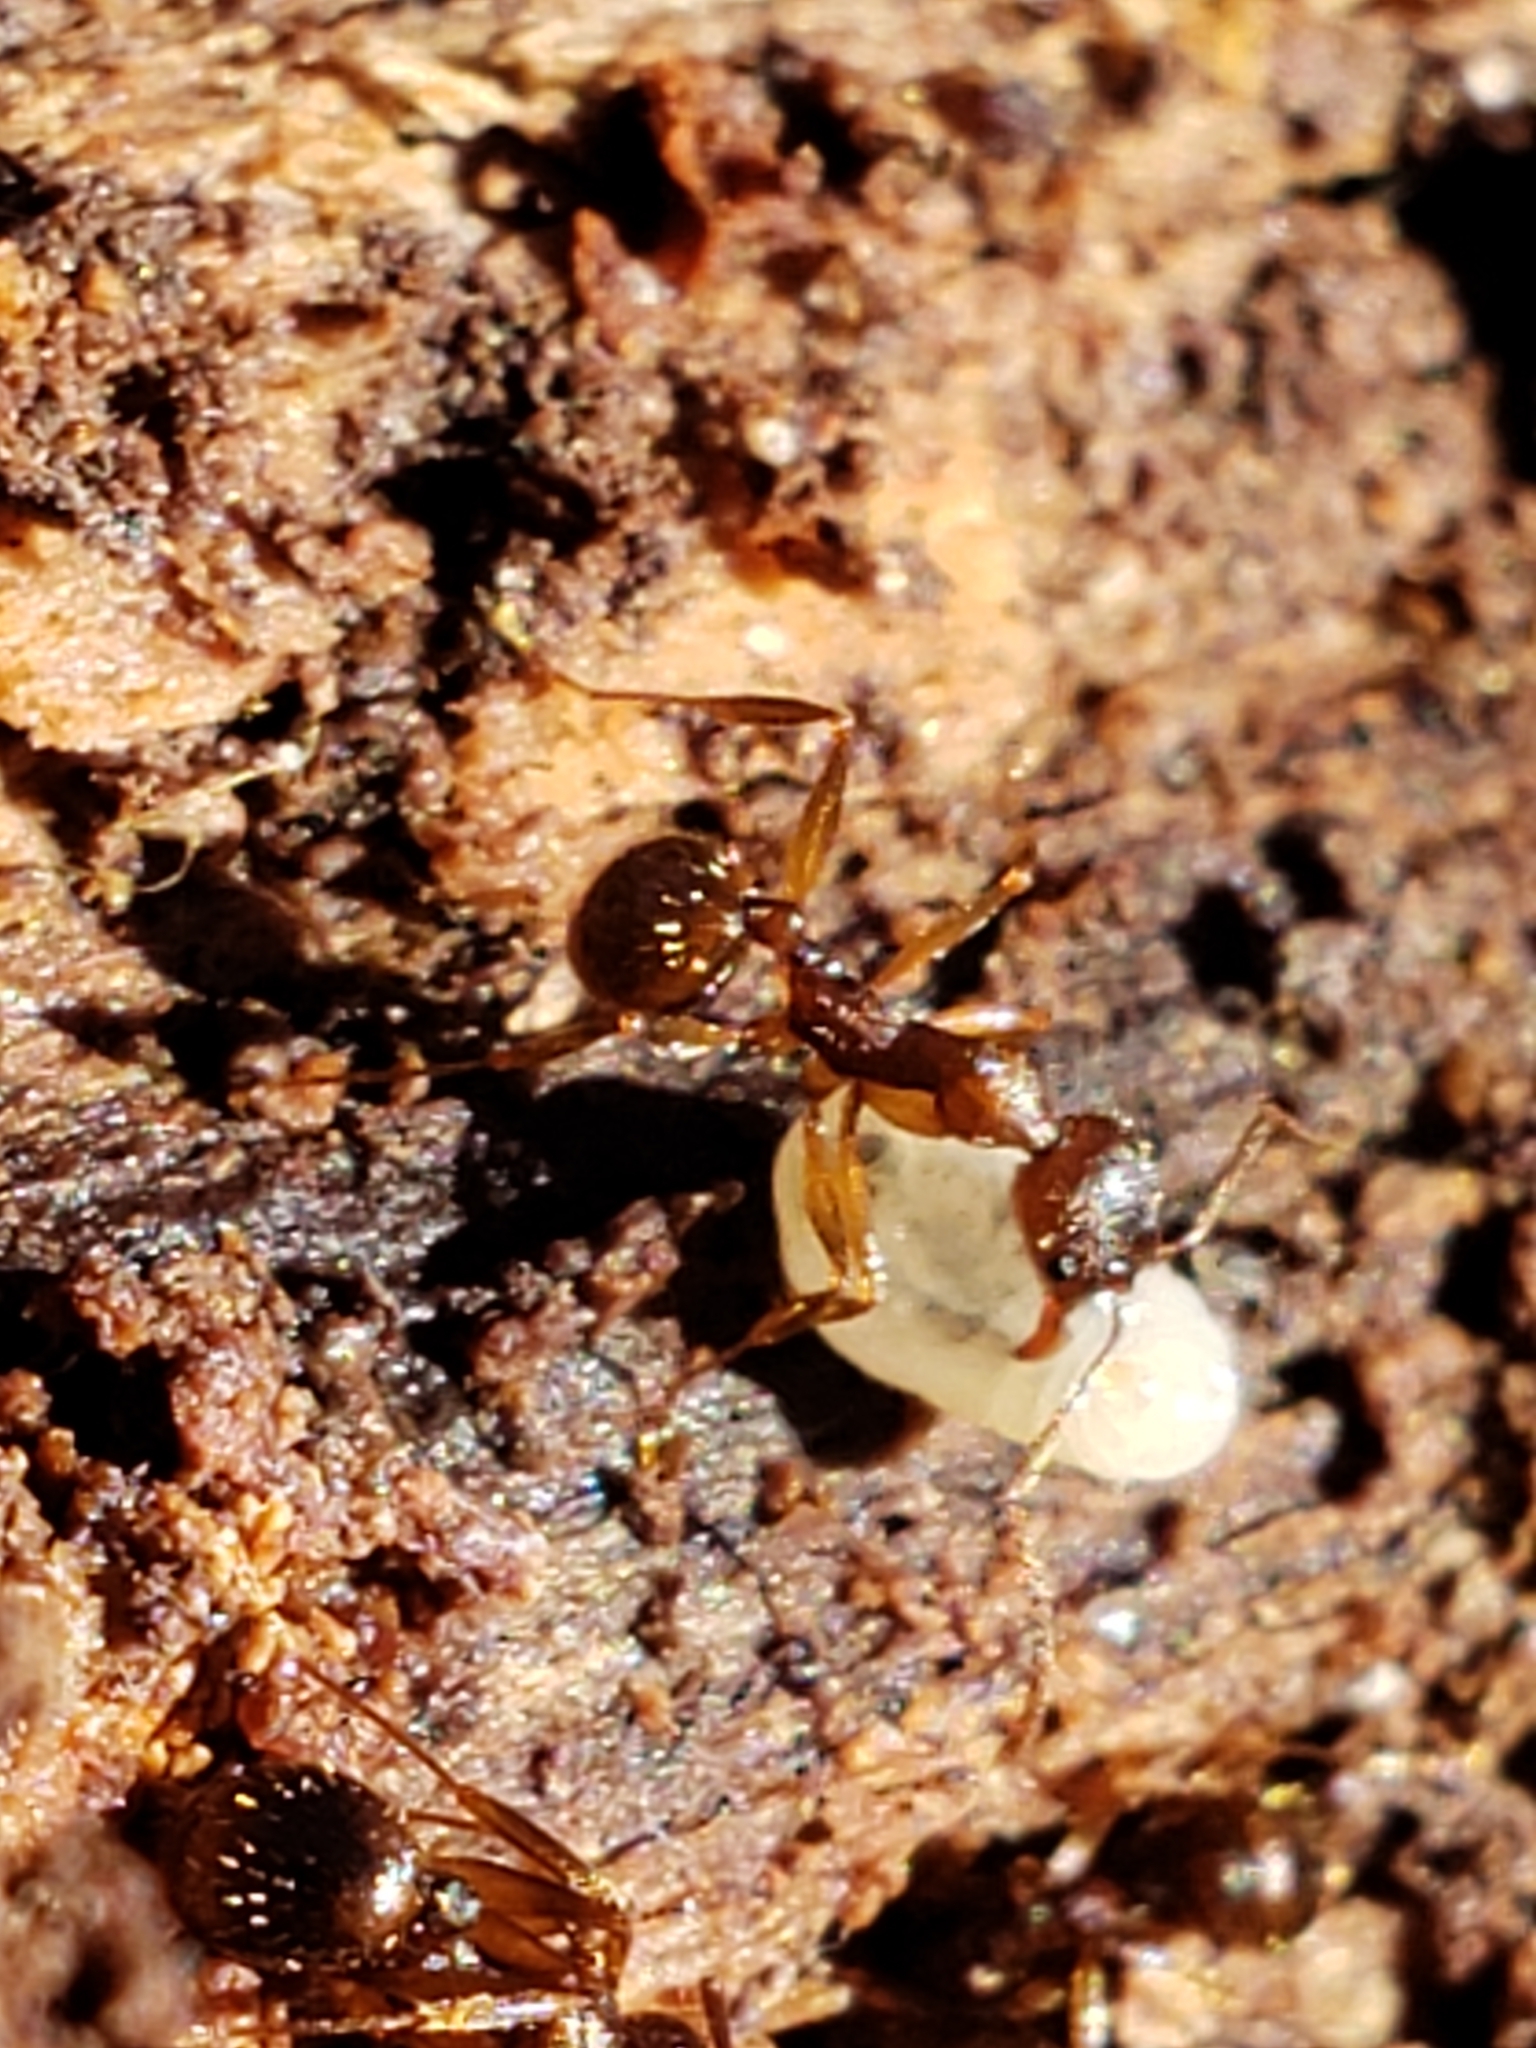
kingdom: Animalia
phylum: Arthropoda
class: Insecta
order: Hymenoptera
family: Formicidae
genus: Aphaenogaster
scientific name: Aphaenogaster rudis
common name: Winnow ant
